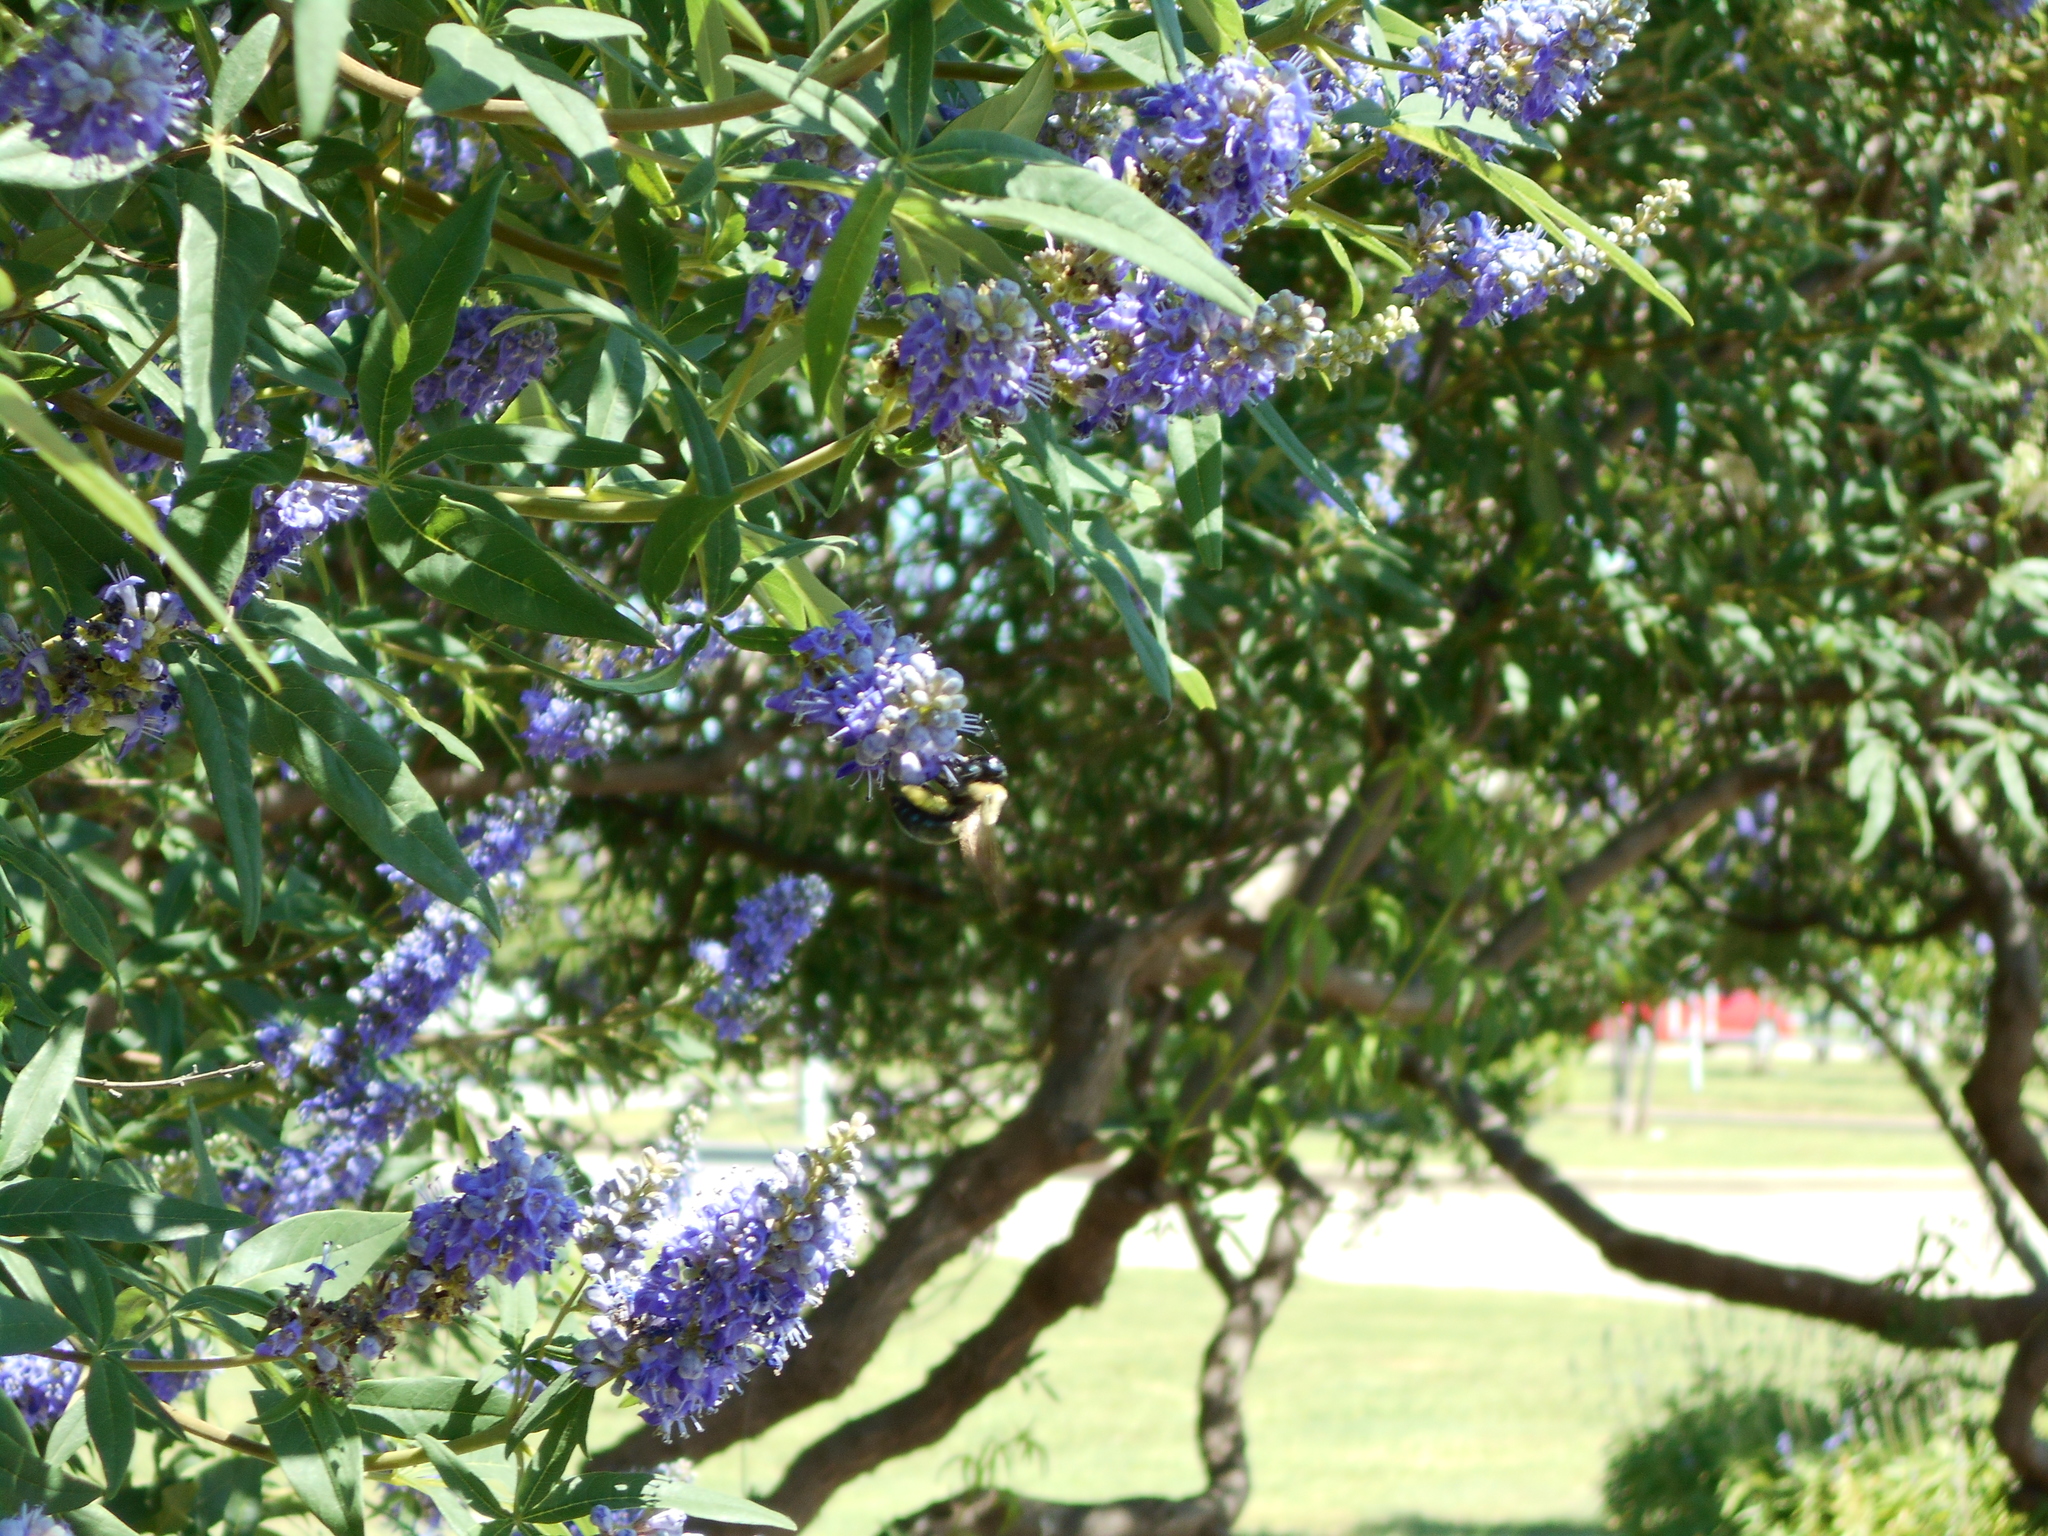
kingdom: Animalia
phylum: Arthropoda
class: Insecta
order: Hymenoptera
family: Apidae
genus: Xylocopa
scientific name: Xylocopa virginica
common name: Carpenter bee
